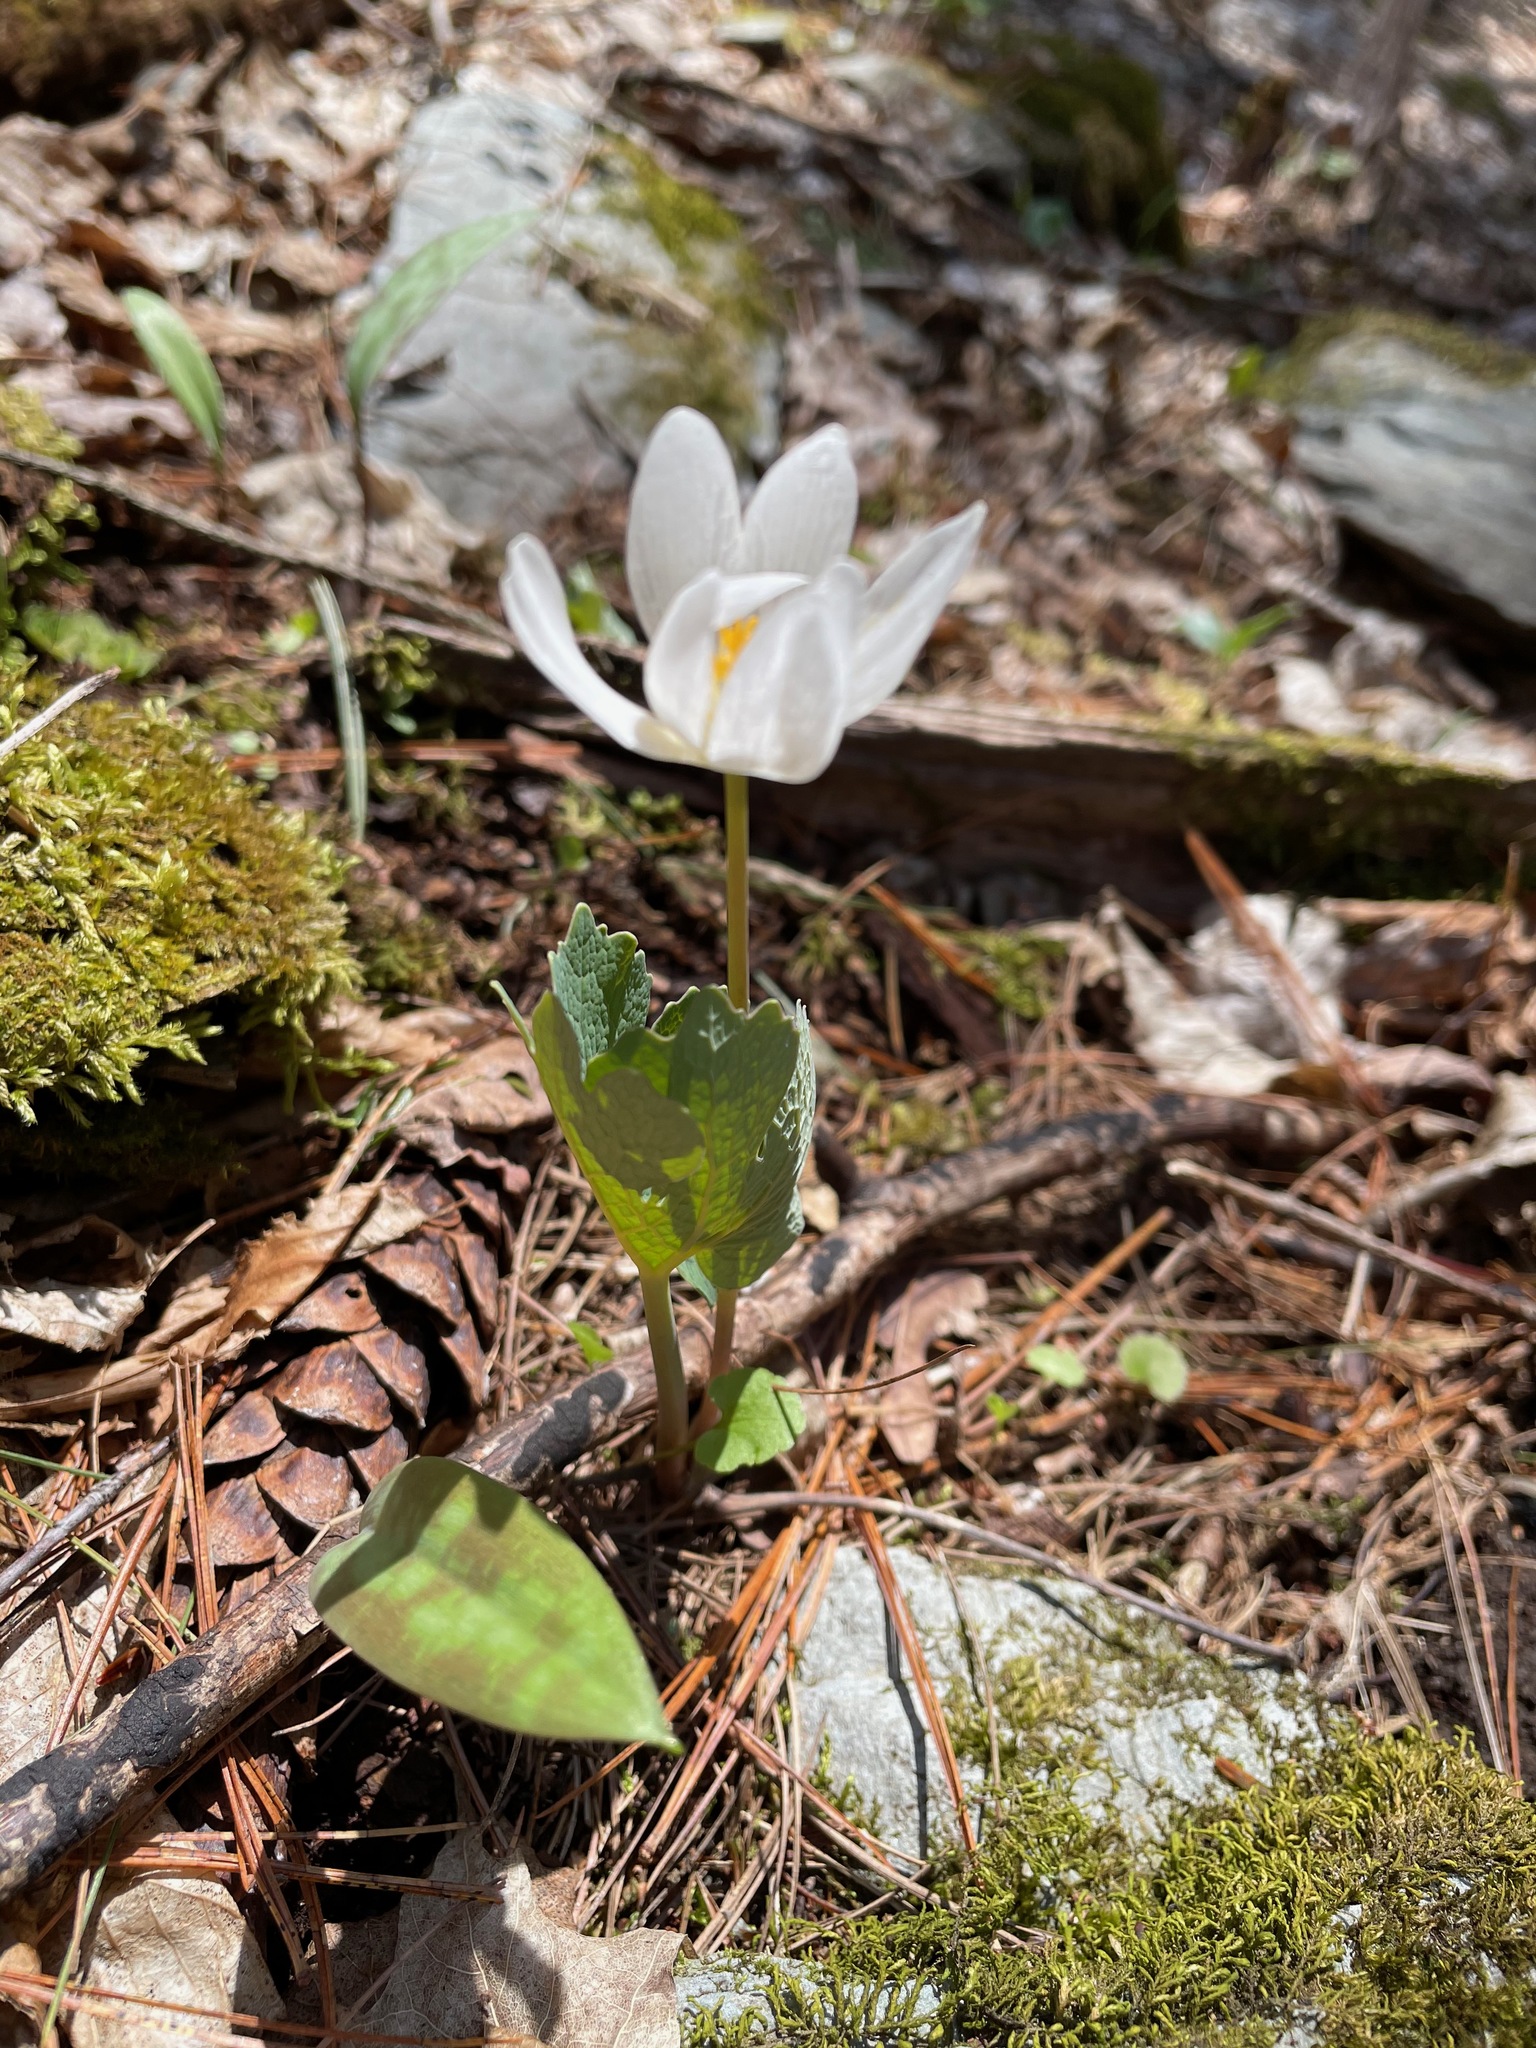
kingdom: Plantae
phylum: Tracheophyta
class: Magnoliopsida
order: Ranunculales
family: Papaveraceae
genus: Sanguinaria
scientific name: Sanguinaria canadensis
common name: Bloodroot
